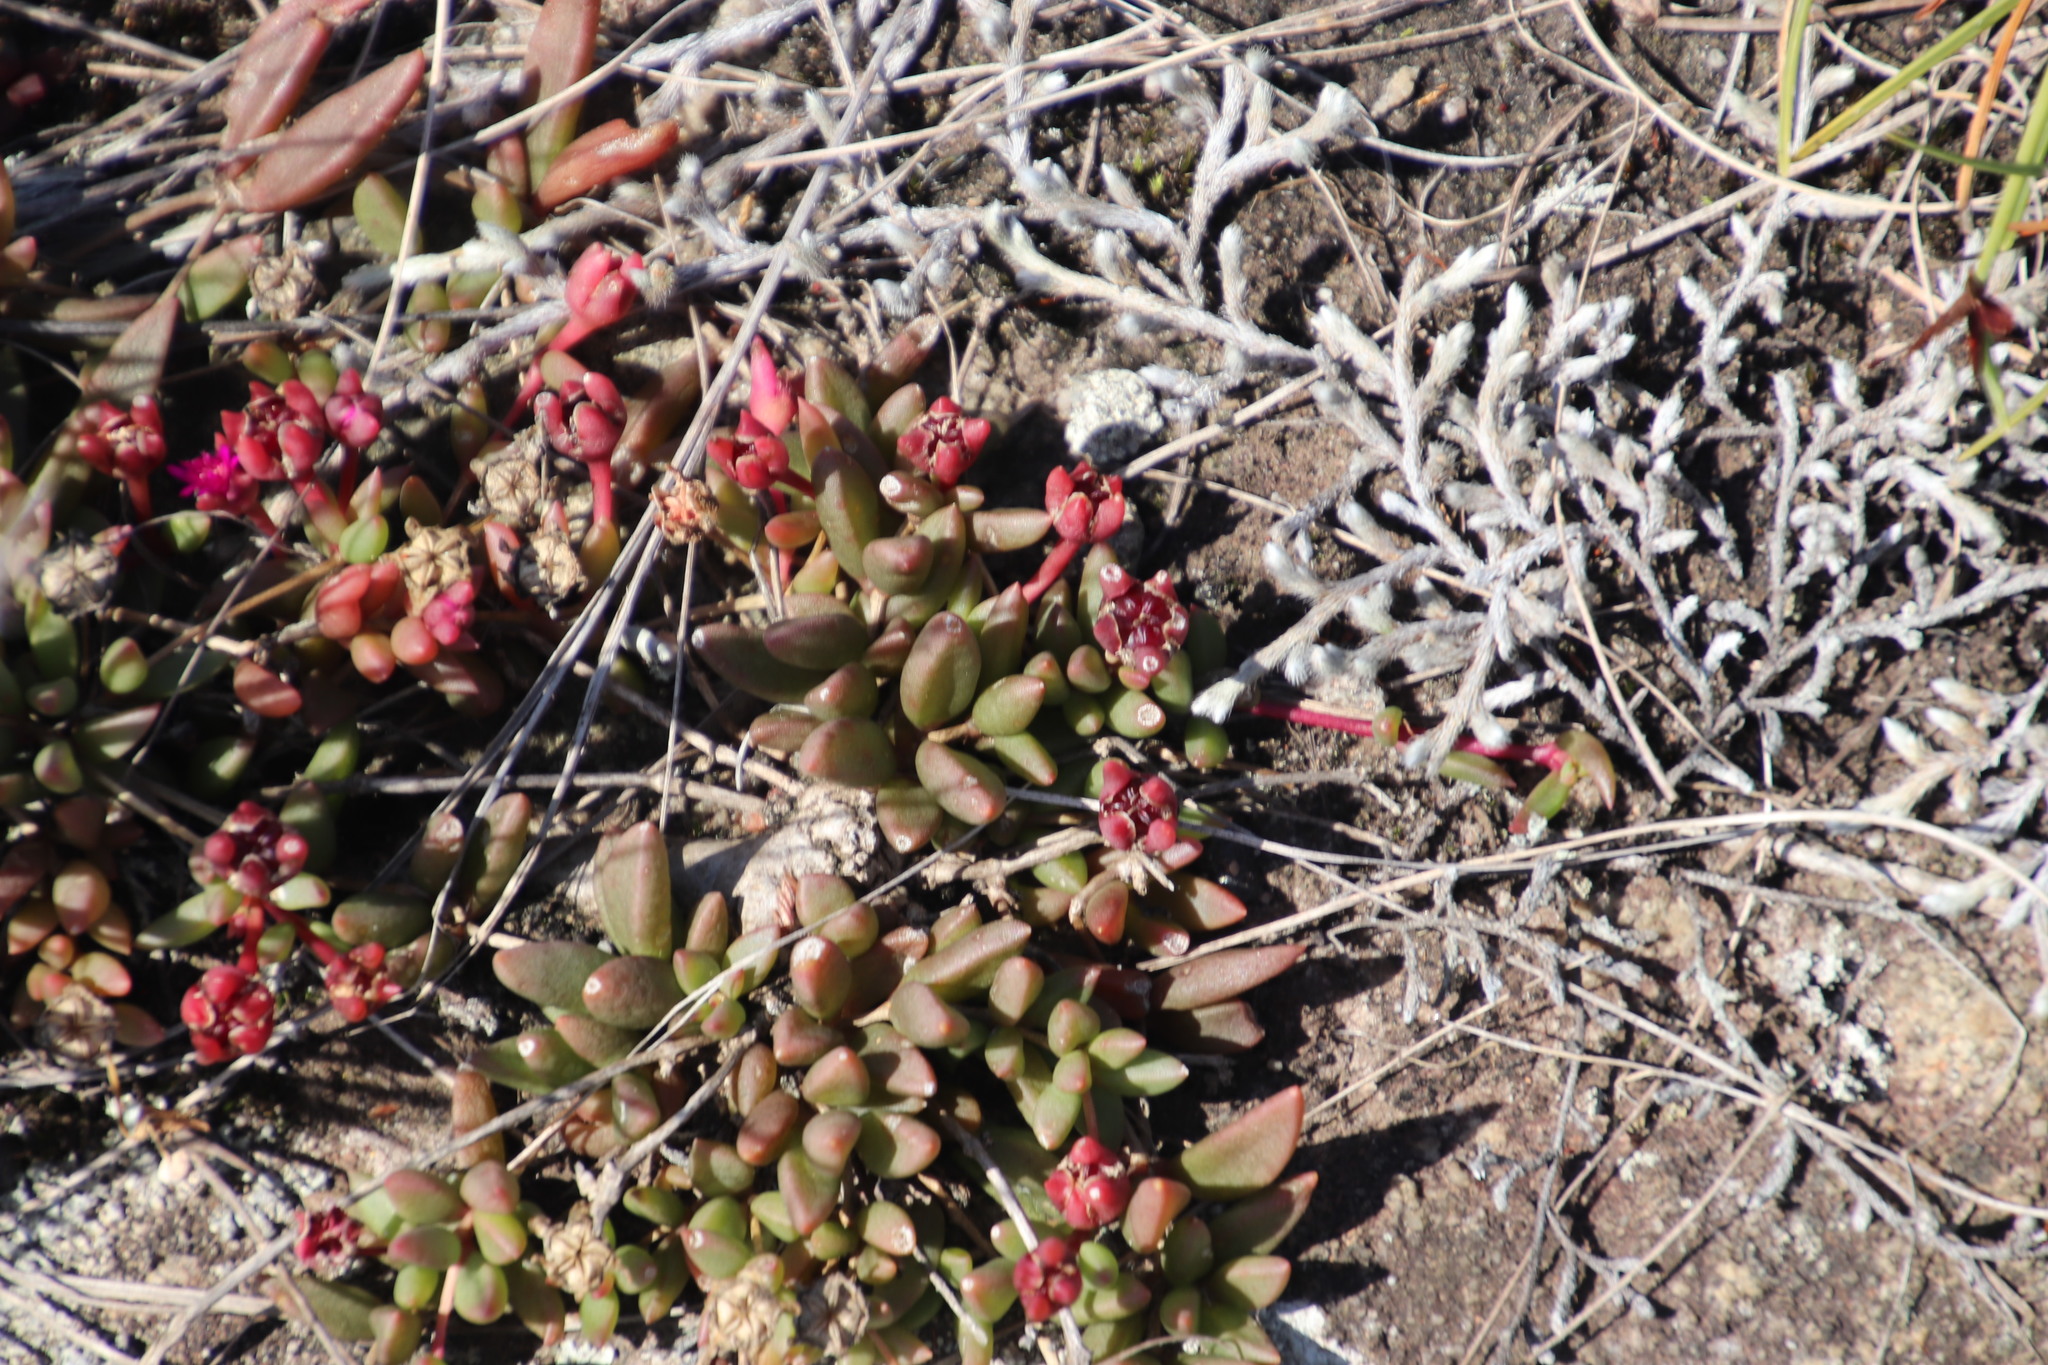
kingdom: Plantae
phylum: Tracheophyta
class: Magnoliopsida
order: Caryophyllales
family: Aizoaceae
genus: Delosperma
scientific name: Delosperma repens
